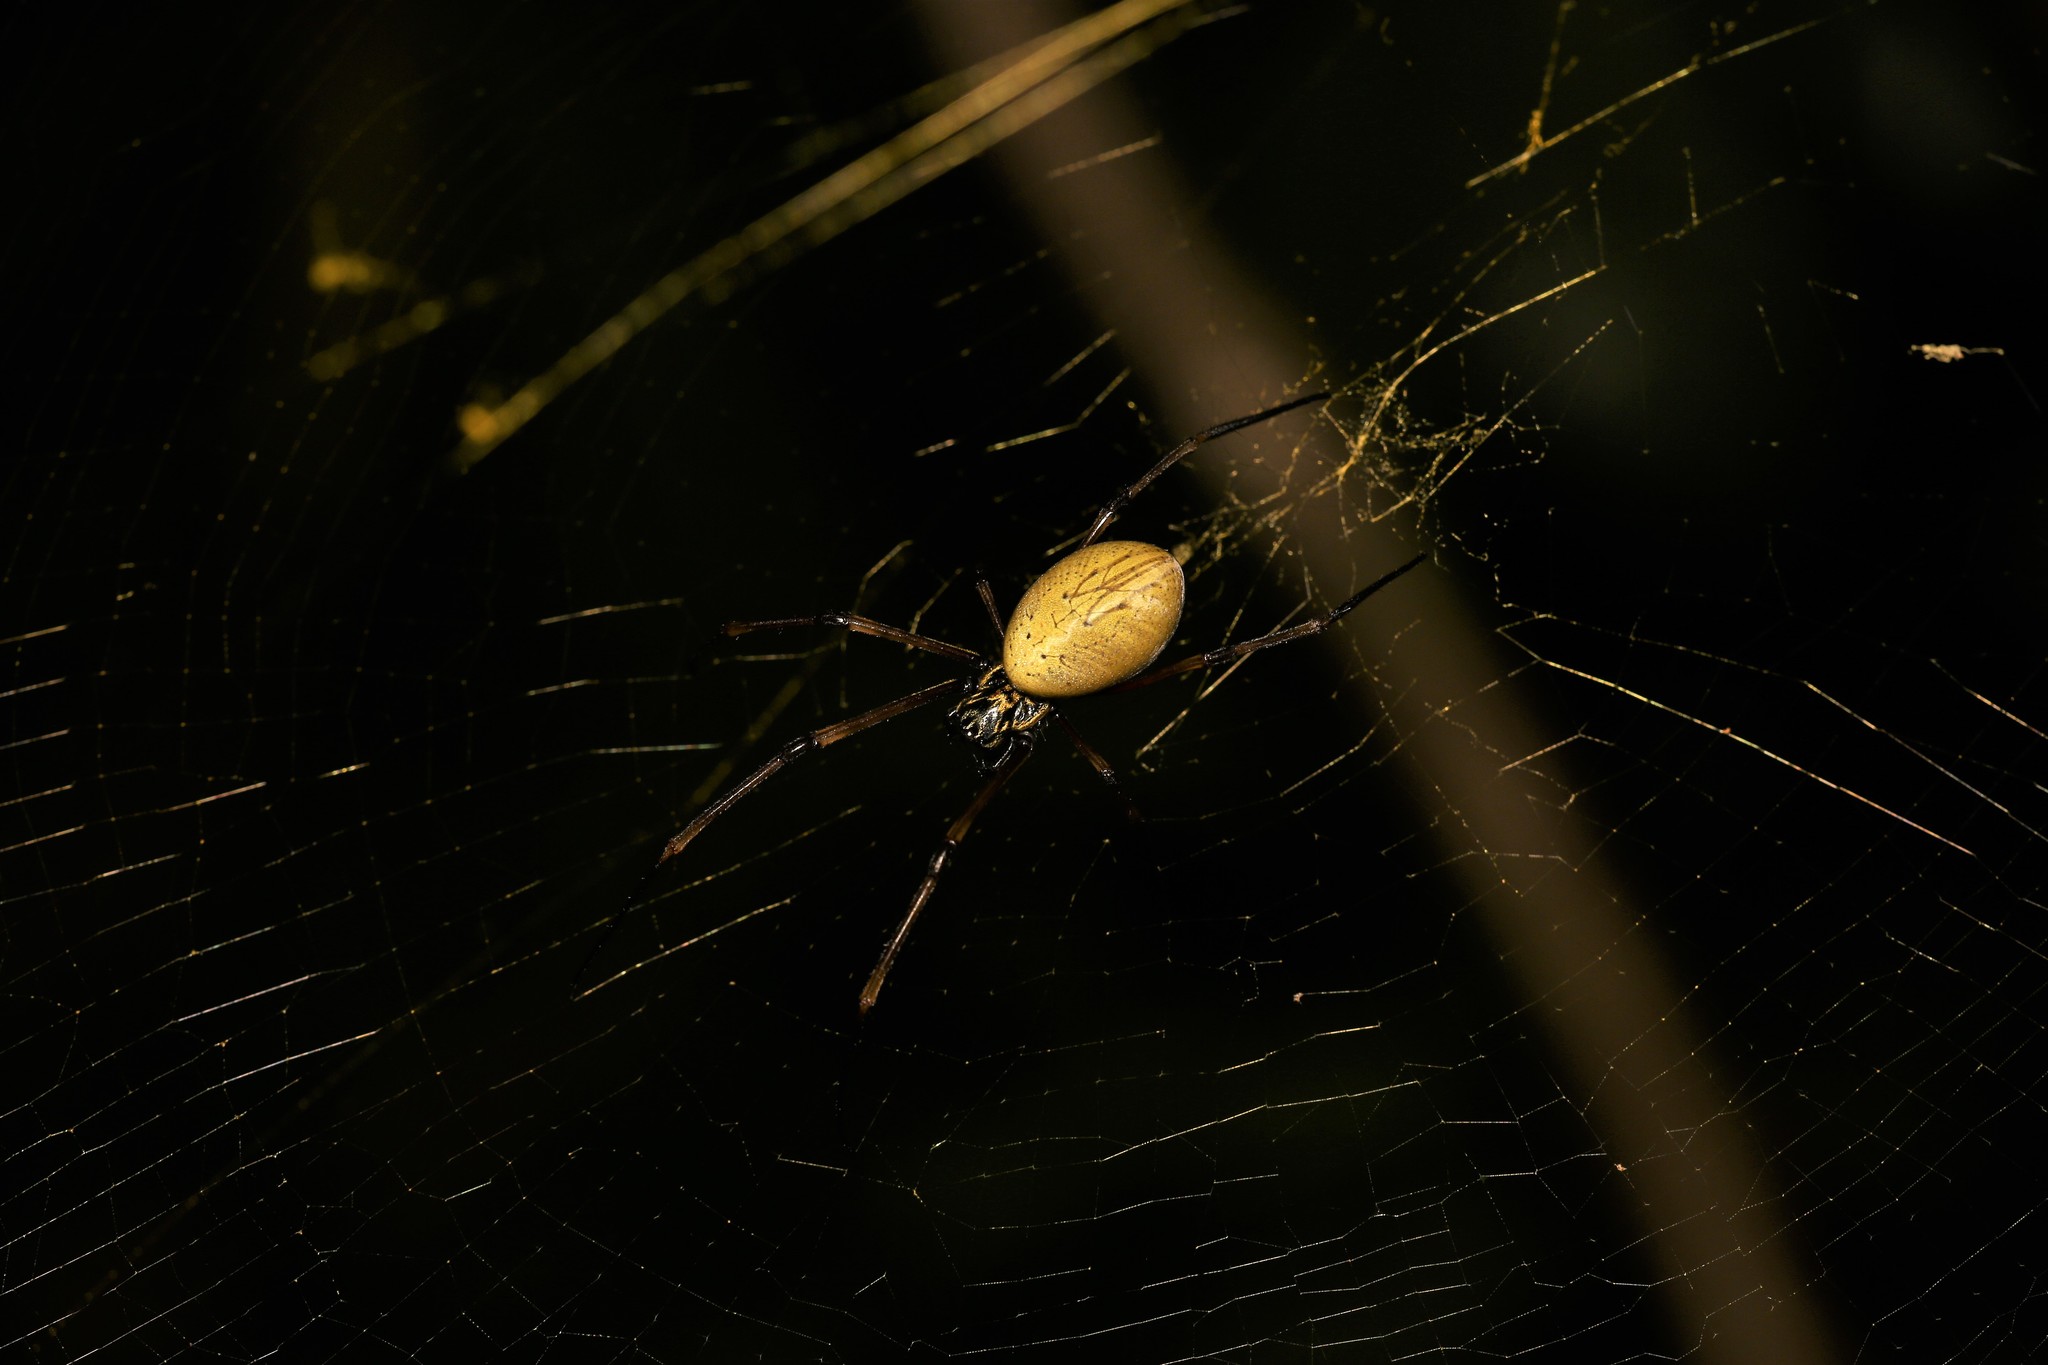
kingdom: Animalia
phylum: Arthropoda
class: Arachnida
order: Araneae
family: Araneidae
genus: Trichonephila
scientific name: Trichonephila plumipes
